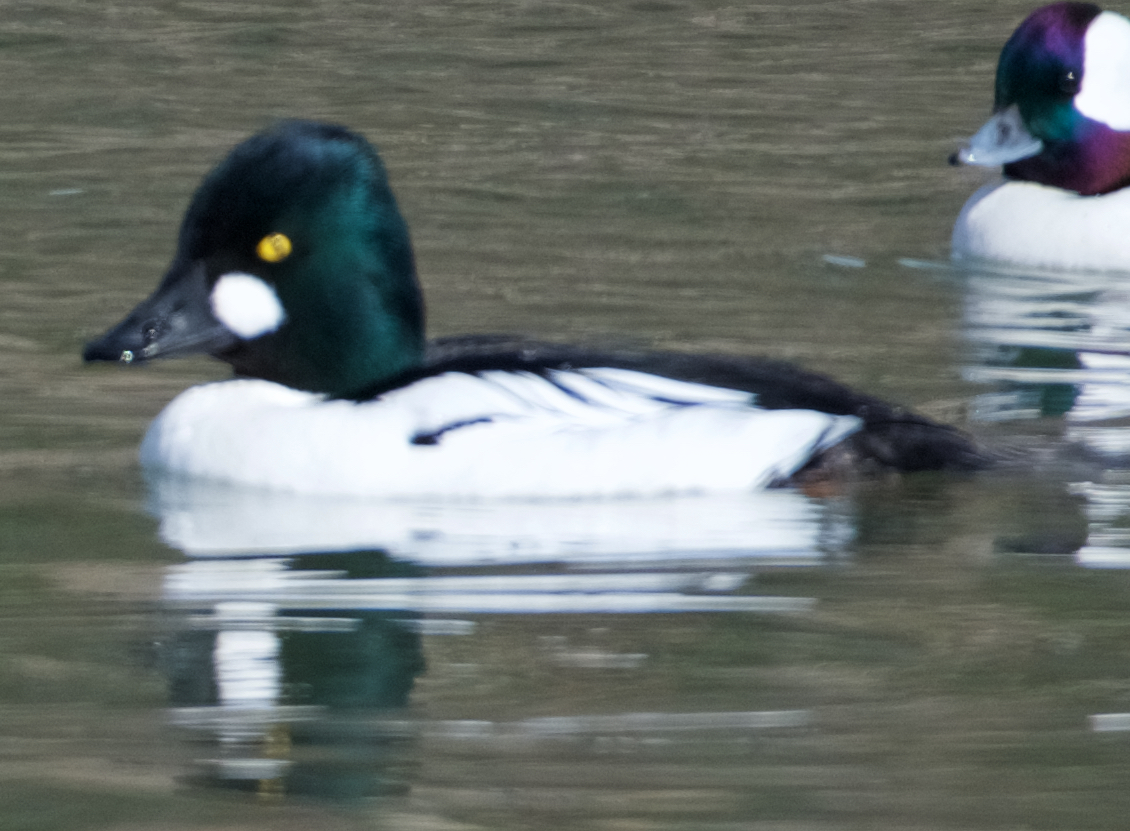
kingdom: Animalia
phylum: Chordata
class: Aves
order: Anseriformes
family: Anatidae
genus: Bucephala
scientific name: Bucephala clangula
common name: Common goldeneye
